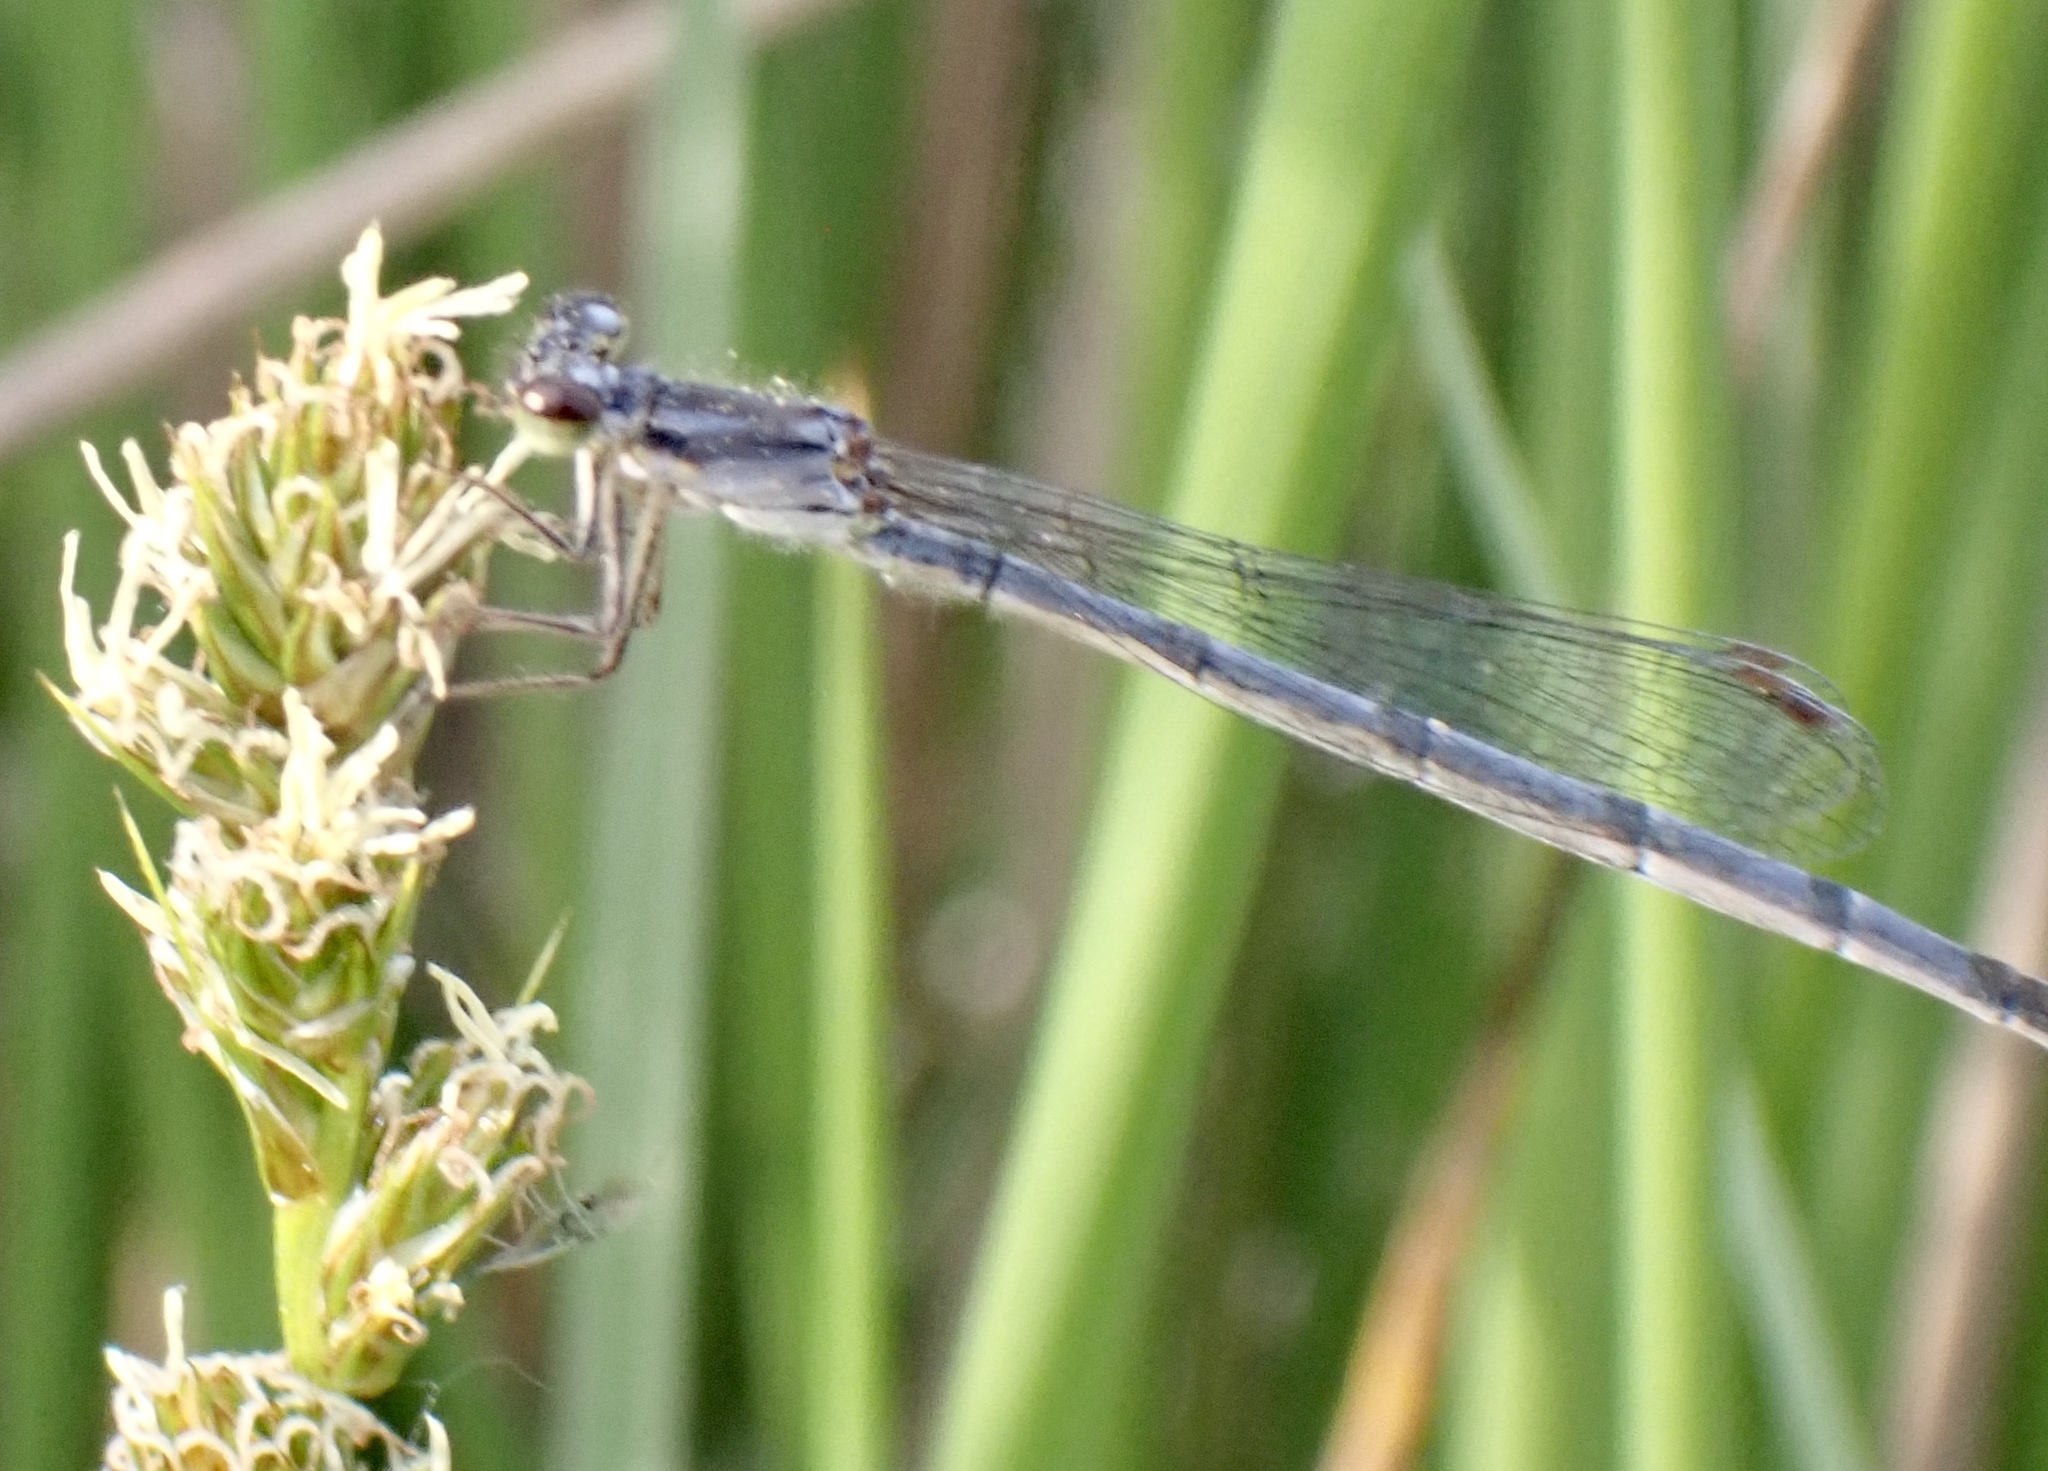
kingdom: Animalia
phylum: Arthropoda
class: Insecta
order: Odonata
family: Coenagrionidae
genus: Ischnura
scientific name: Ischnura posita
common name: Fragile forktail
